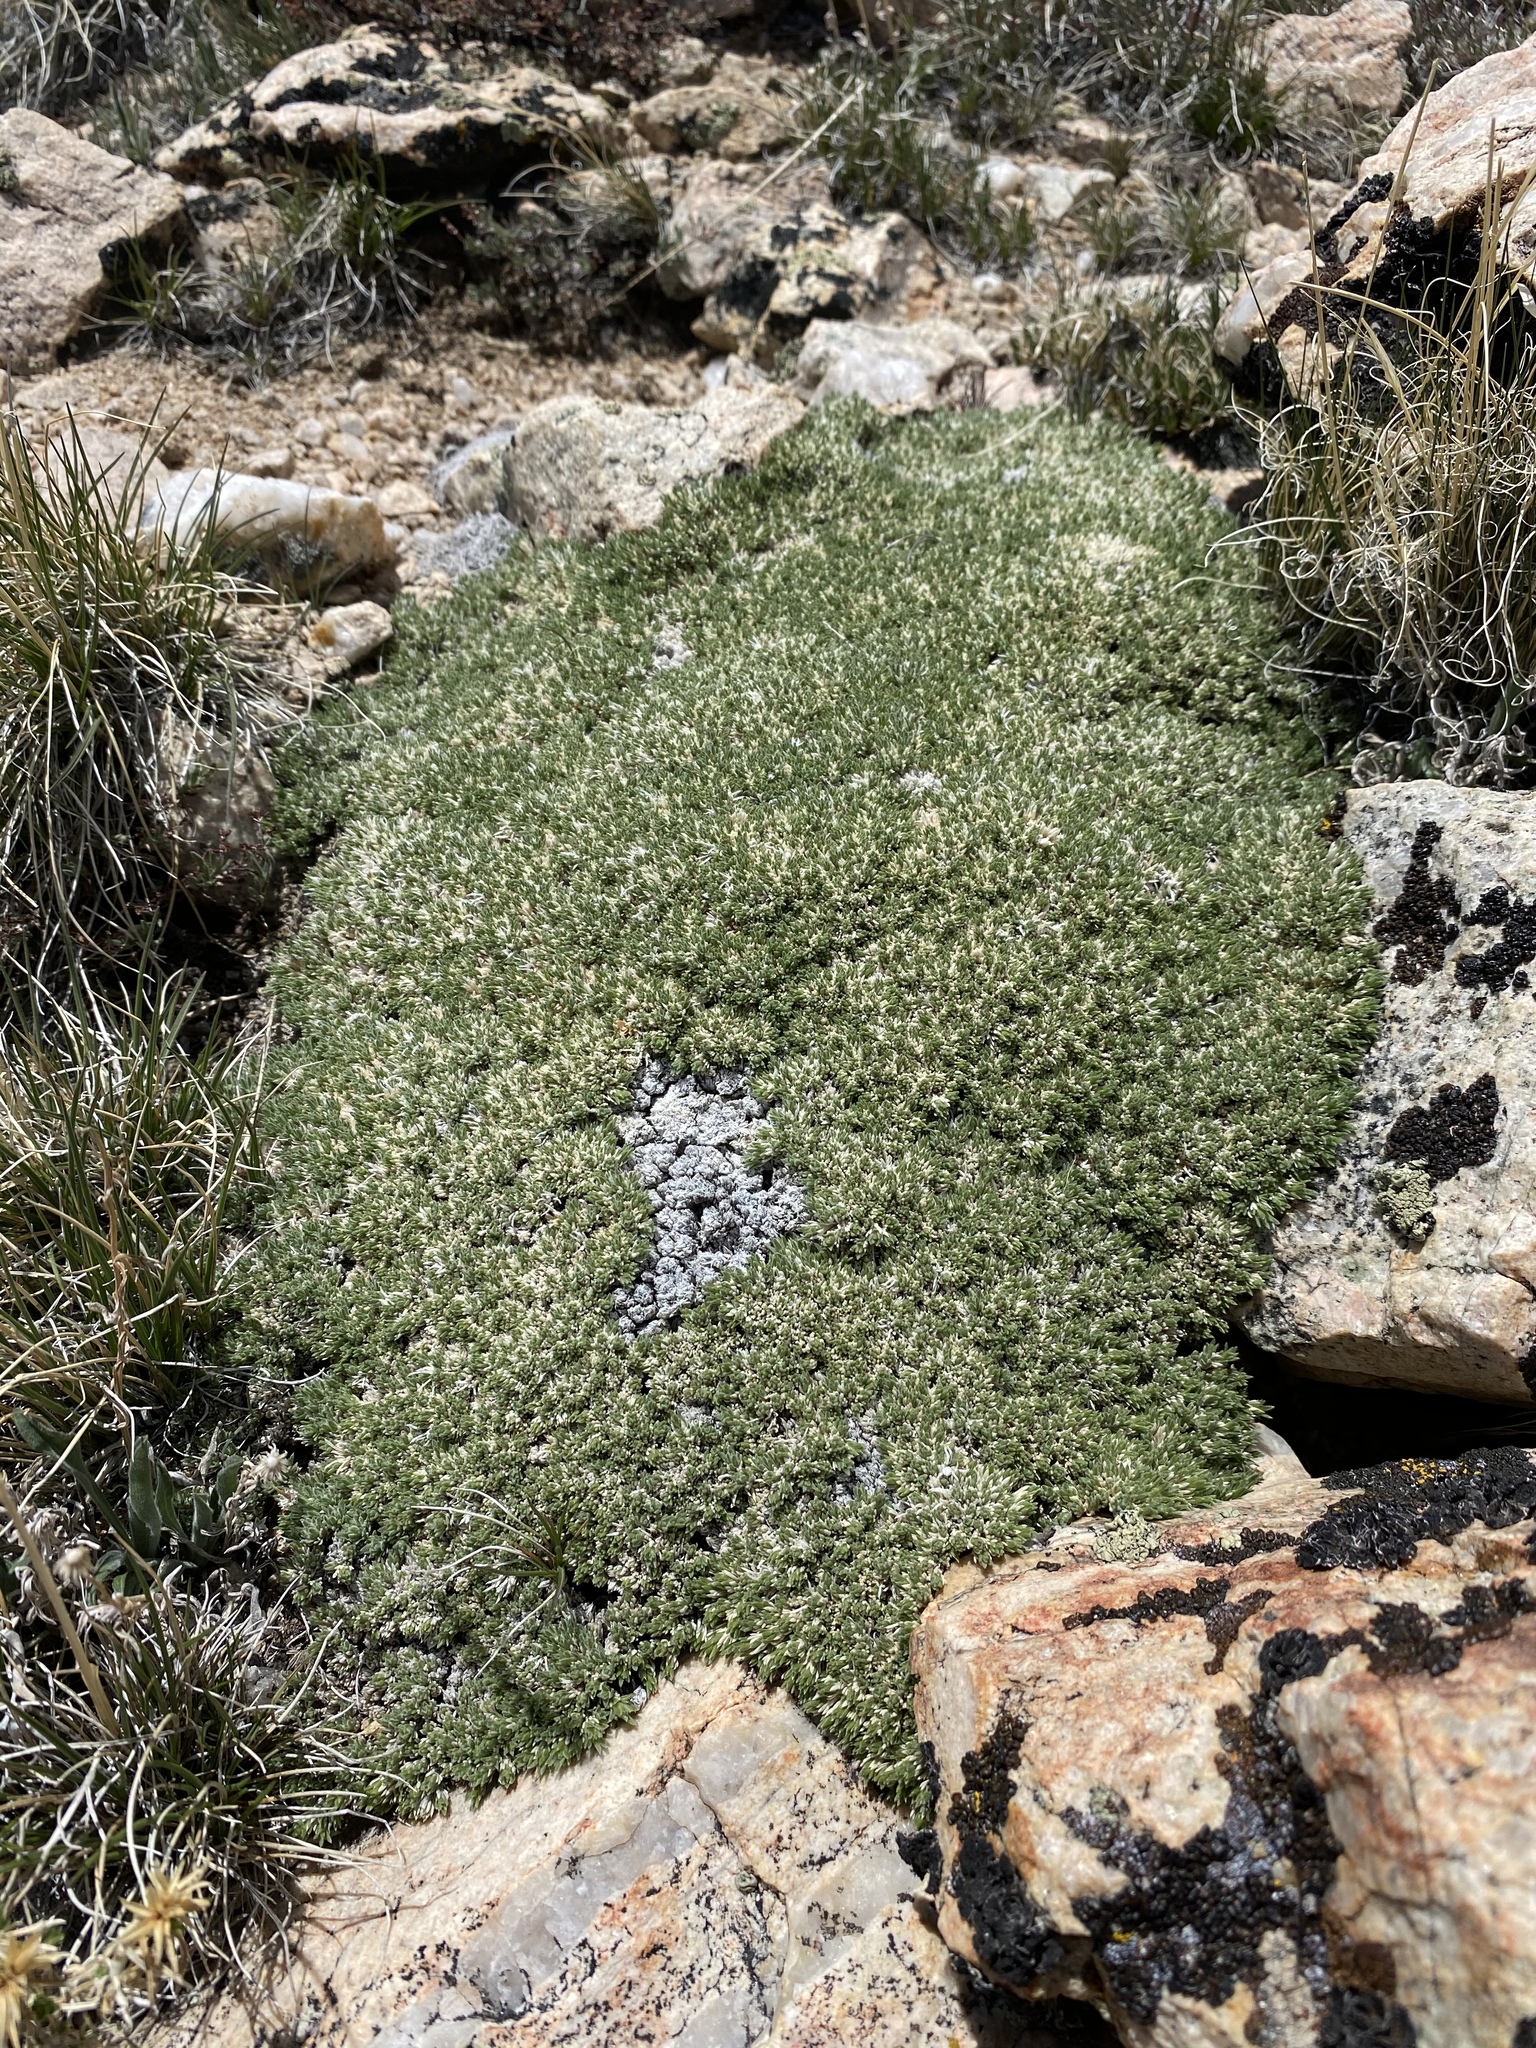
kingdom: Plantae
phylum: Tracheophyta
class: Magnoliopsida
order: Ericales
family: Polemoniaceae
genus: Phlox
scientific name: Phlox condensata
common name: Compact phlox
